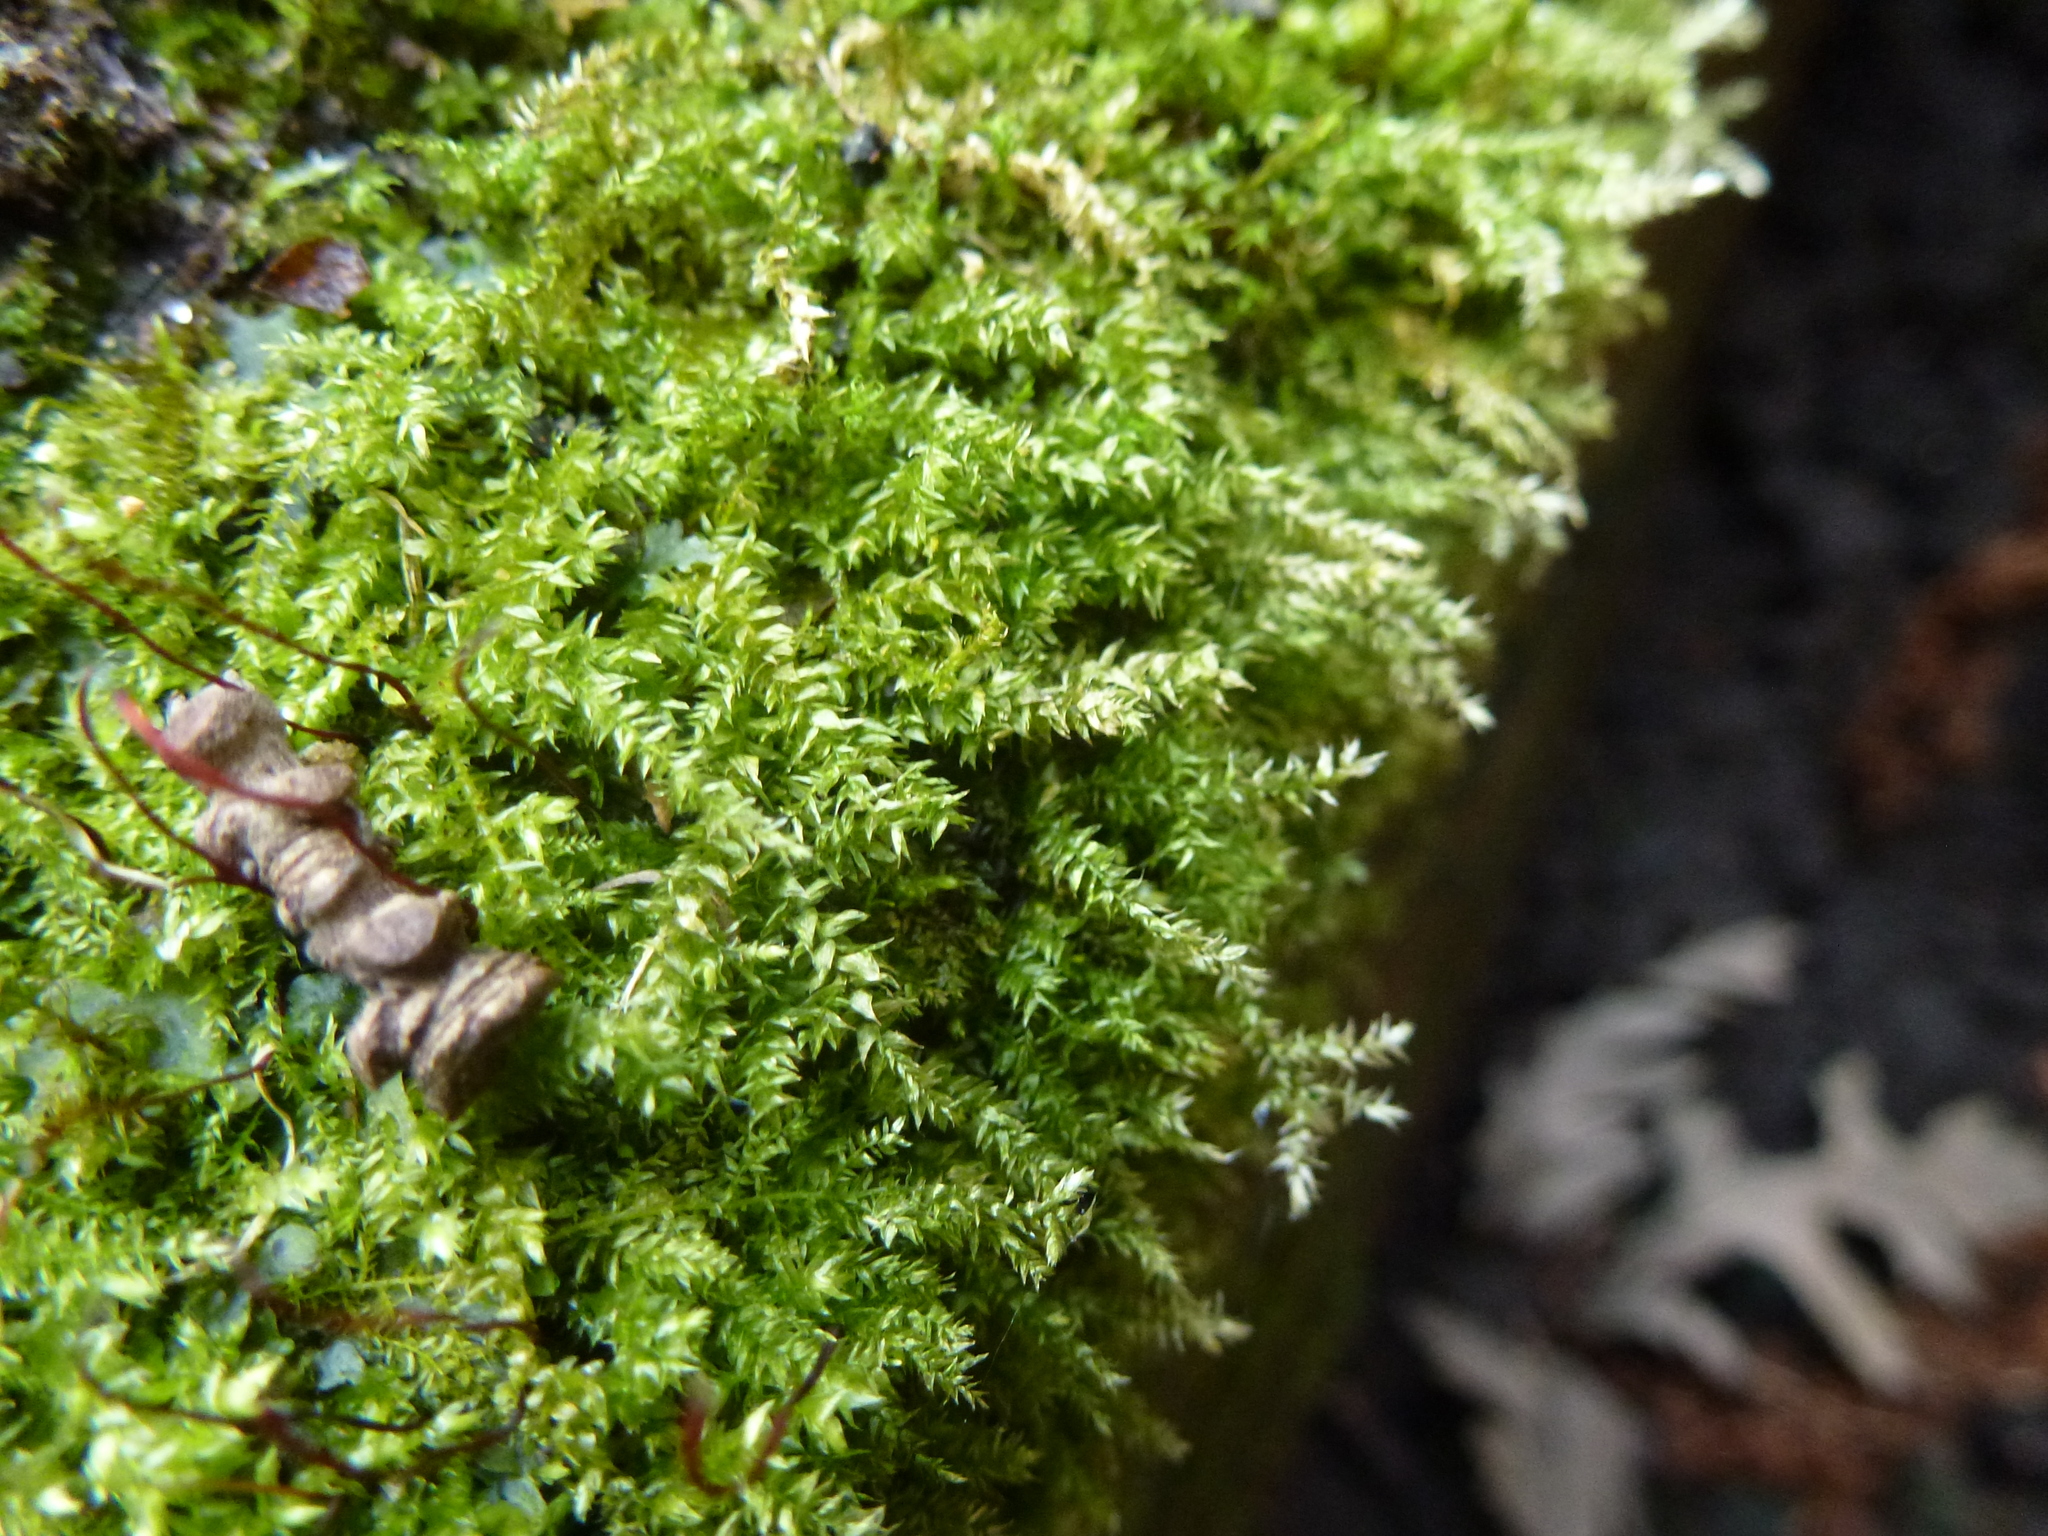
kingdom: Plantae
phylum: Bryophyta
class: Bryopsida
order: Hypnales
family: Brachytheciaceae
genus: Brachythecium
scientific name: Brachythecium rutabulum
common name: Rough-stalked feather-moss
